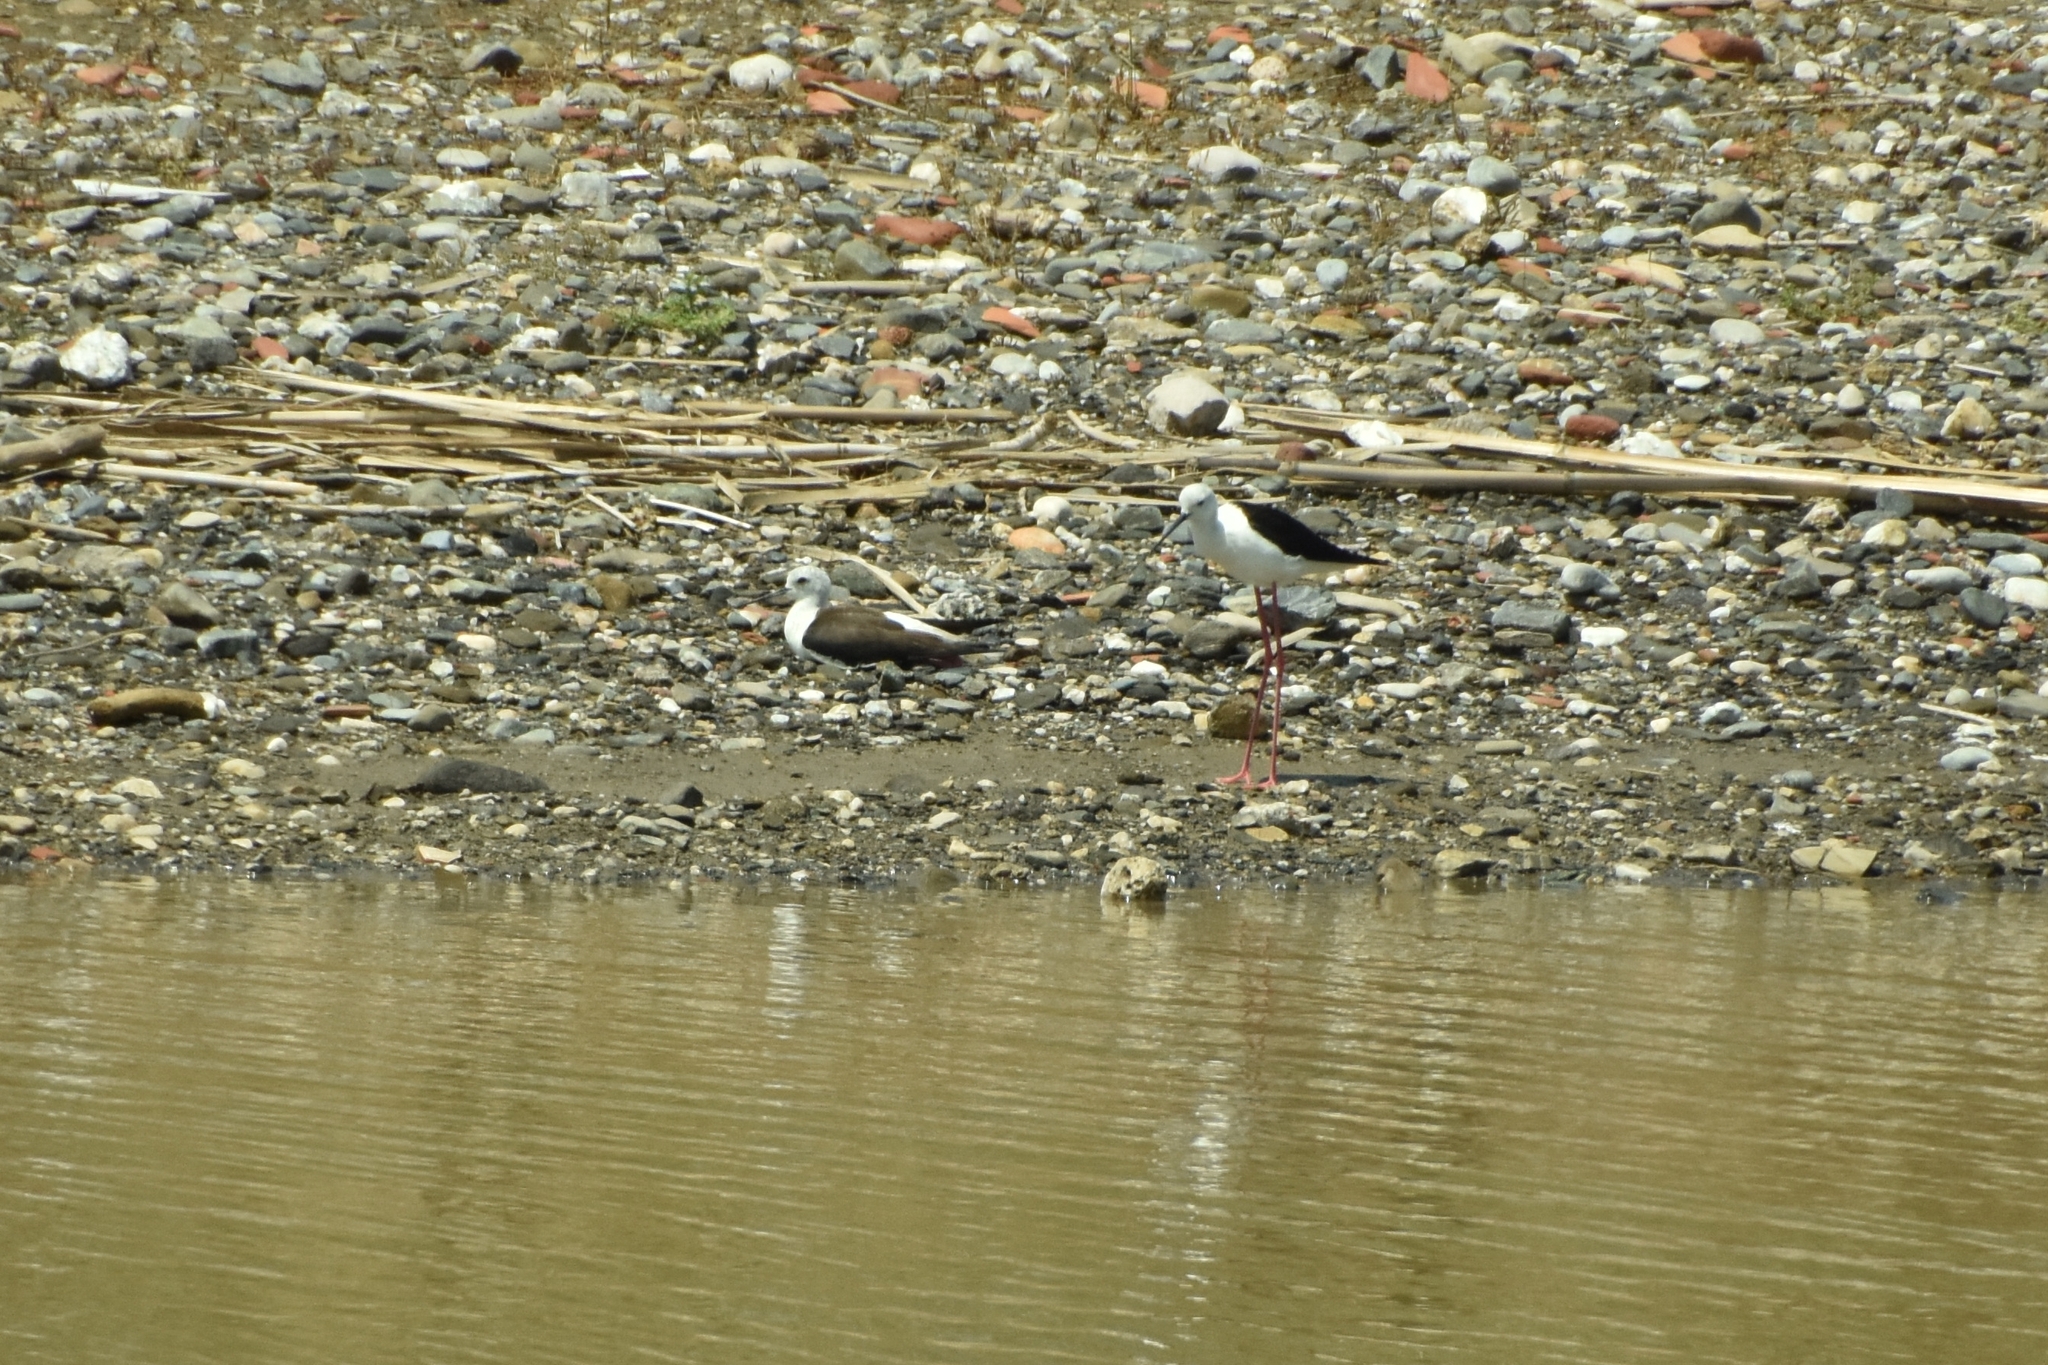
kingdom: Animalia
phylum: Chordata
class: Aves
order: Charadriiformes
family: Recurvirostridae
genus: Himantopus
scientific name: Himantopus himantopus
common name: Black-winged stilt
